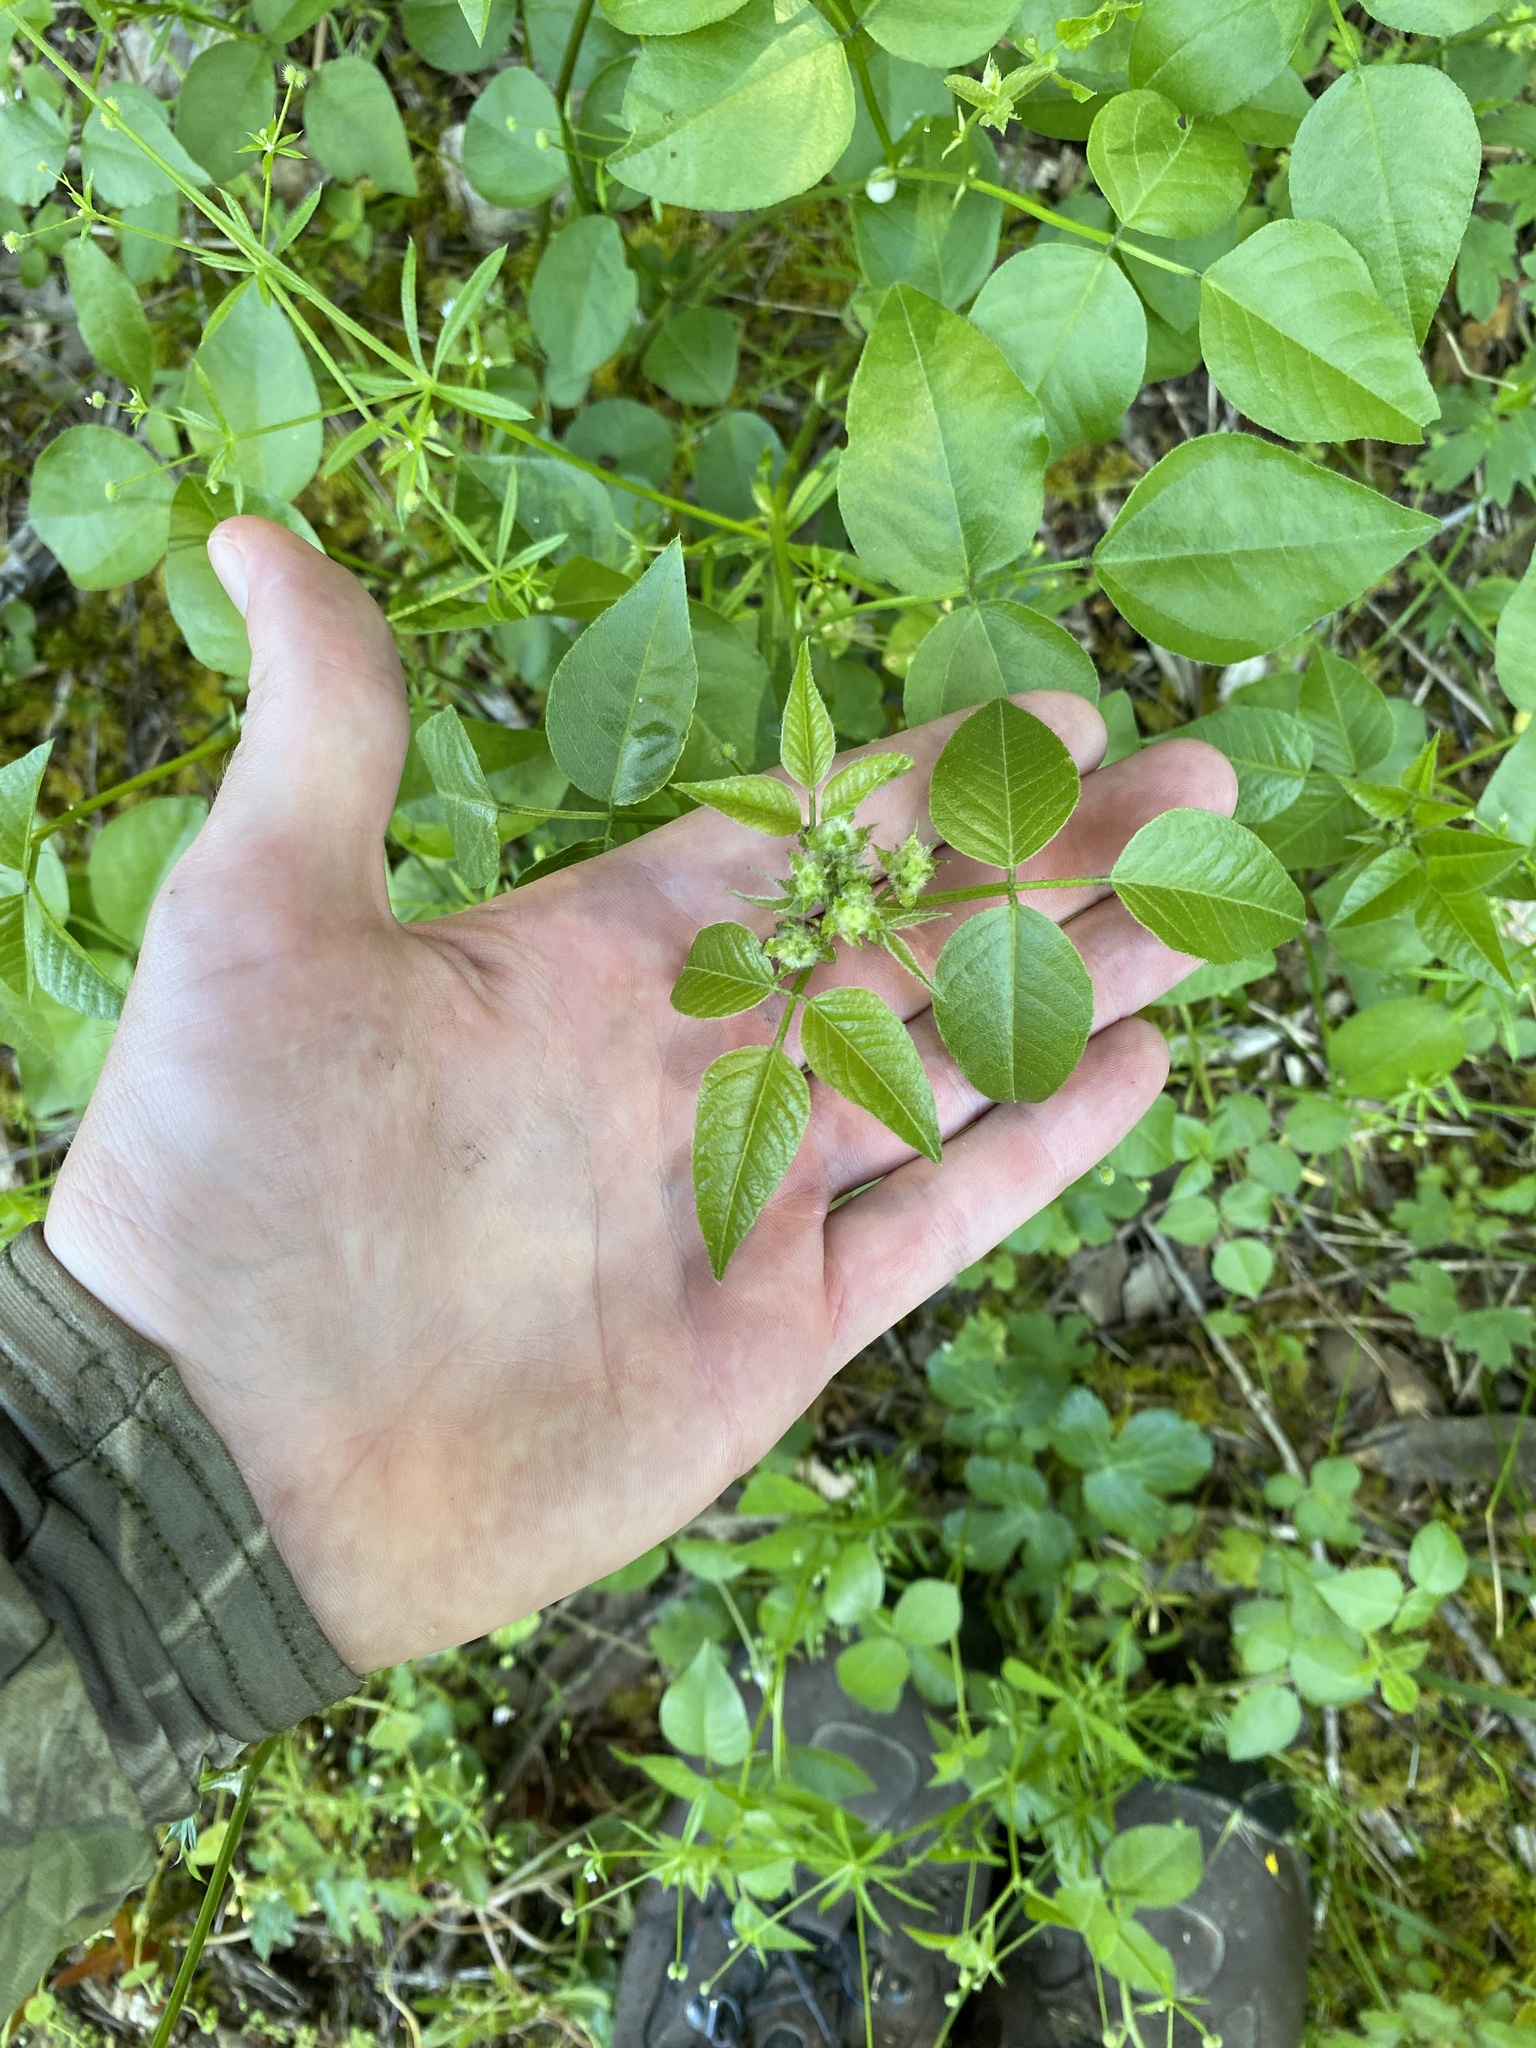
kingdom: Plantae
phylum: Tracheophyta
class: Magnoliopsida
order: Fabales
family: Fabaceae
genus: Rupertia
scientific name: Rupertia physodes
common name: California-tea
